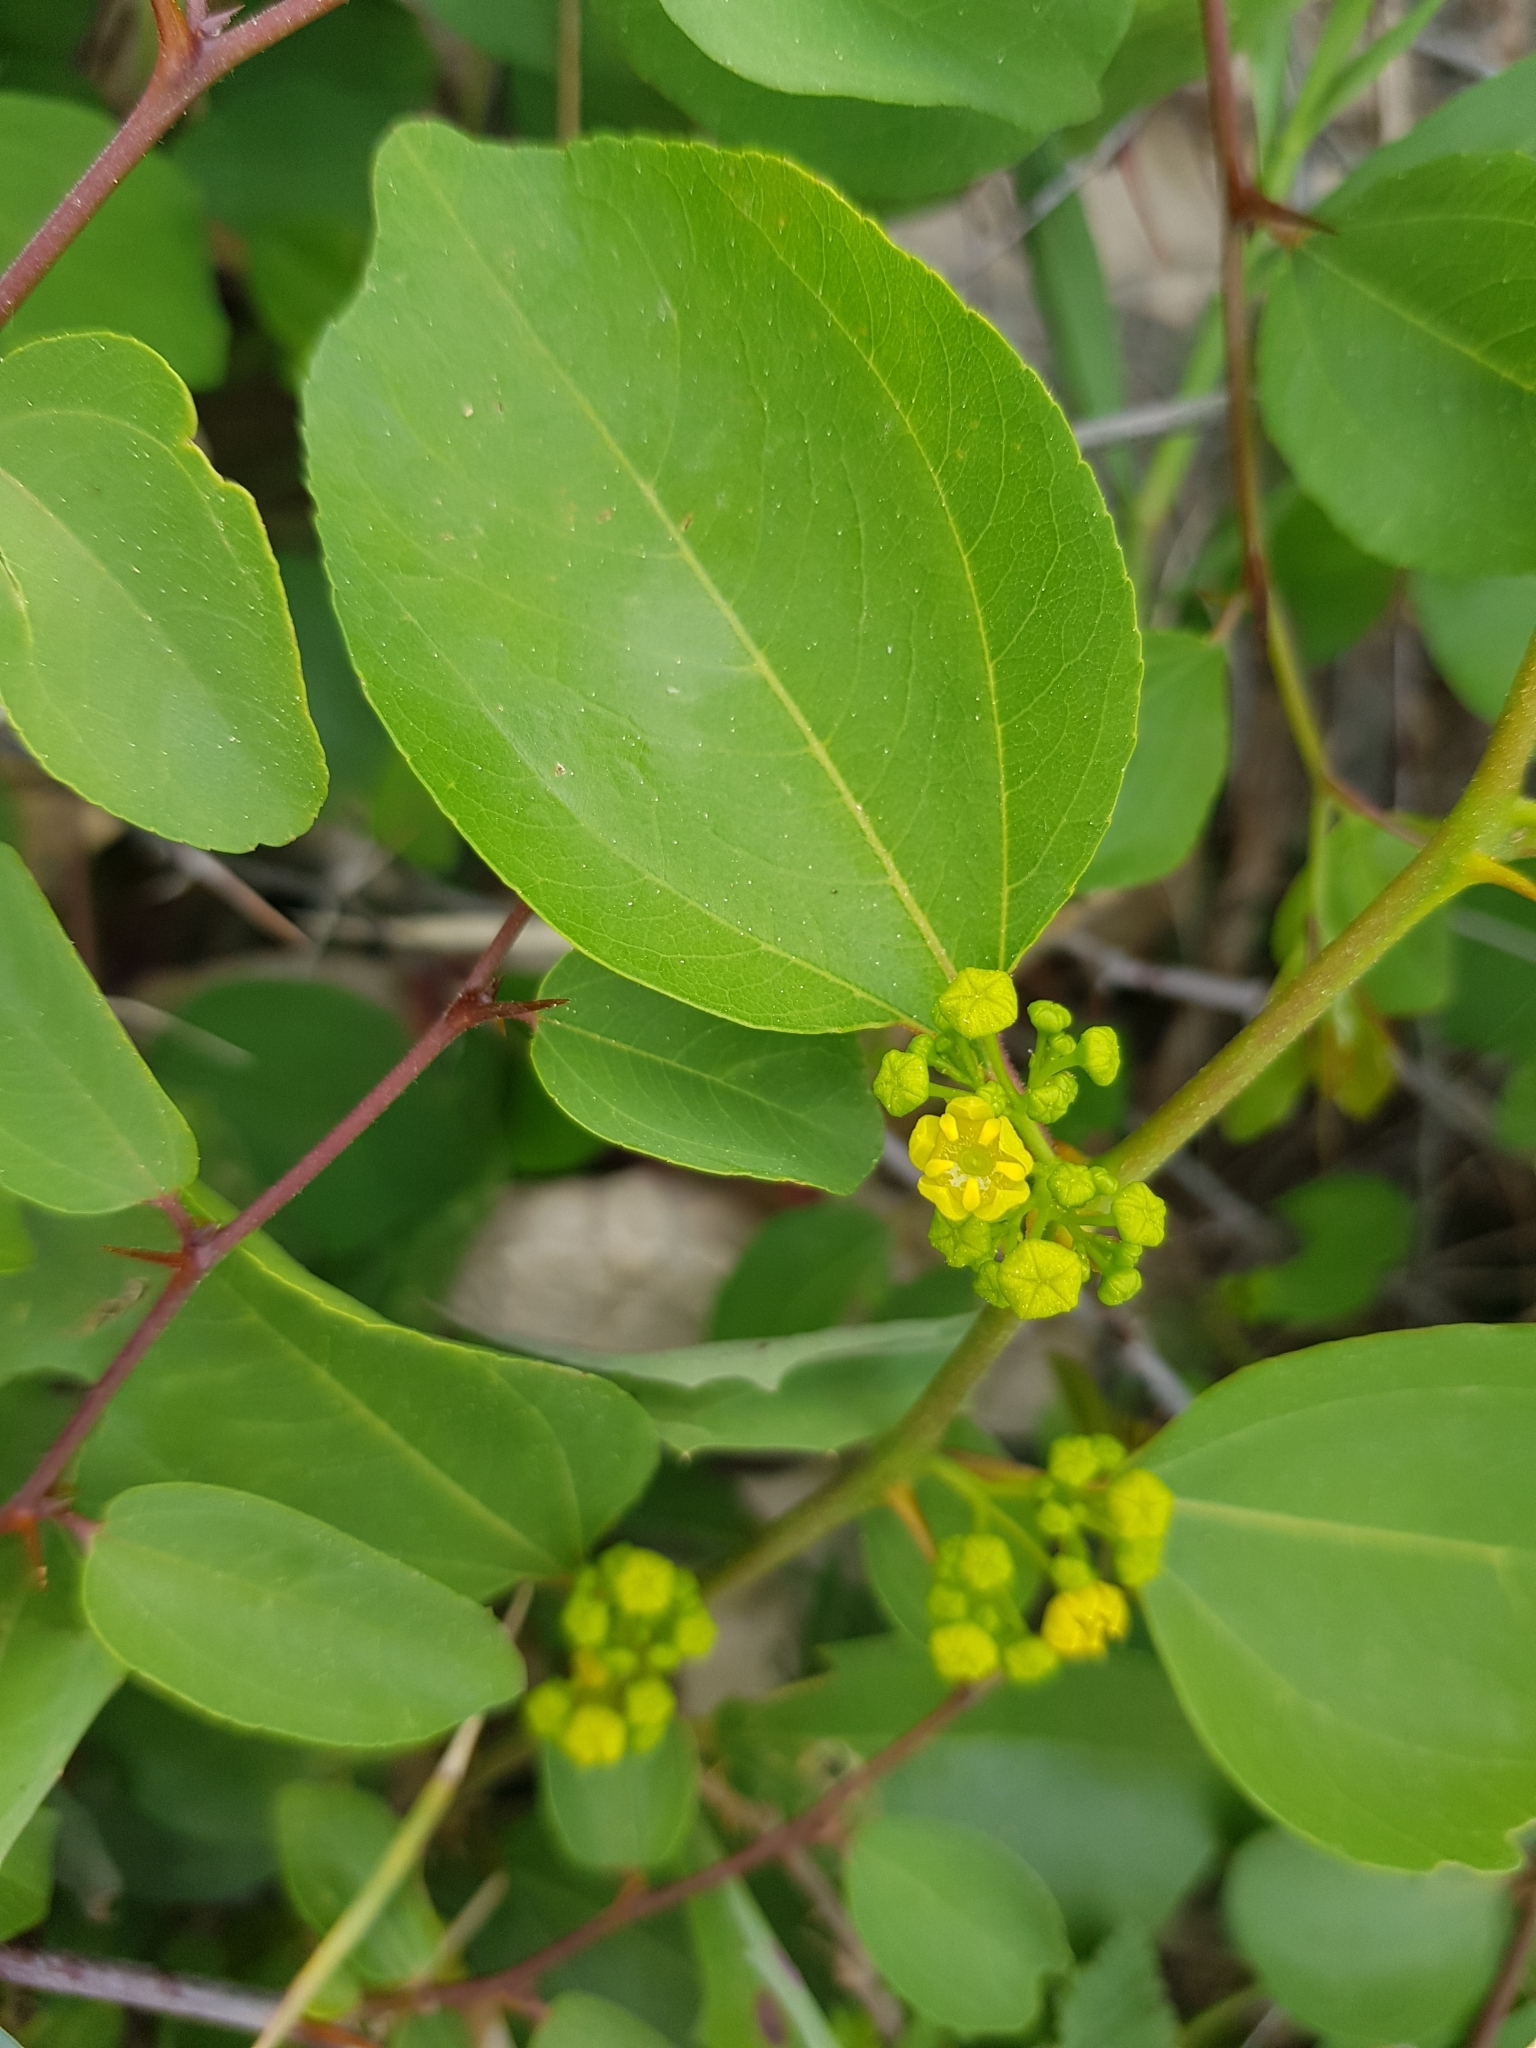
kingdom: Plantae
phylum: Tracheophyta
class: Magnoliopsida
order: Rosales
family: Rhamnaceae
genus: Paliurus
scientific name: Paliurus spina-christi
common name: Jeruselem thorn
